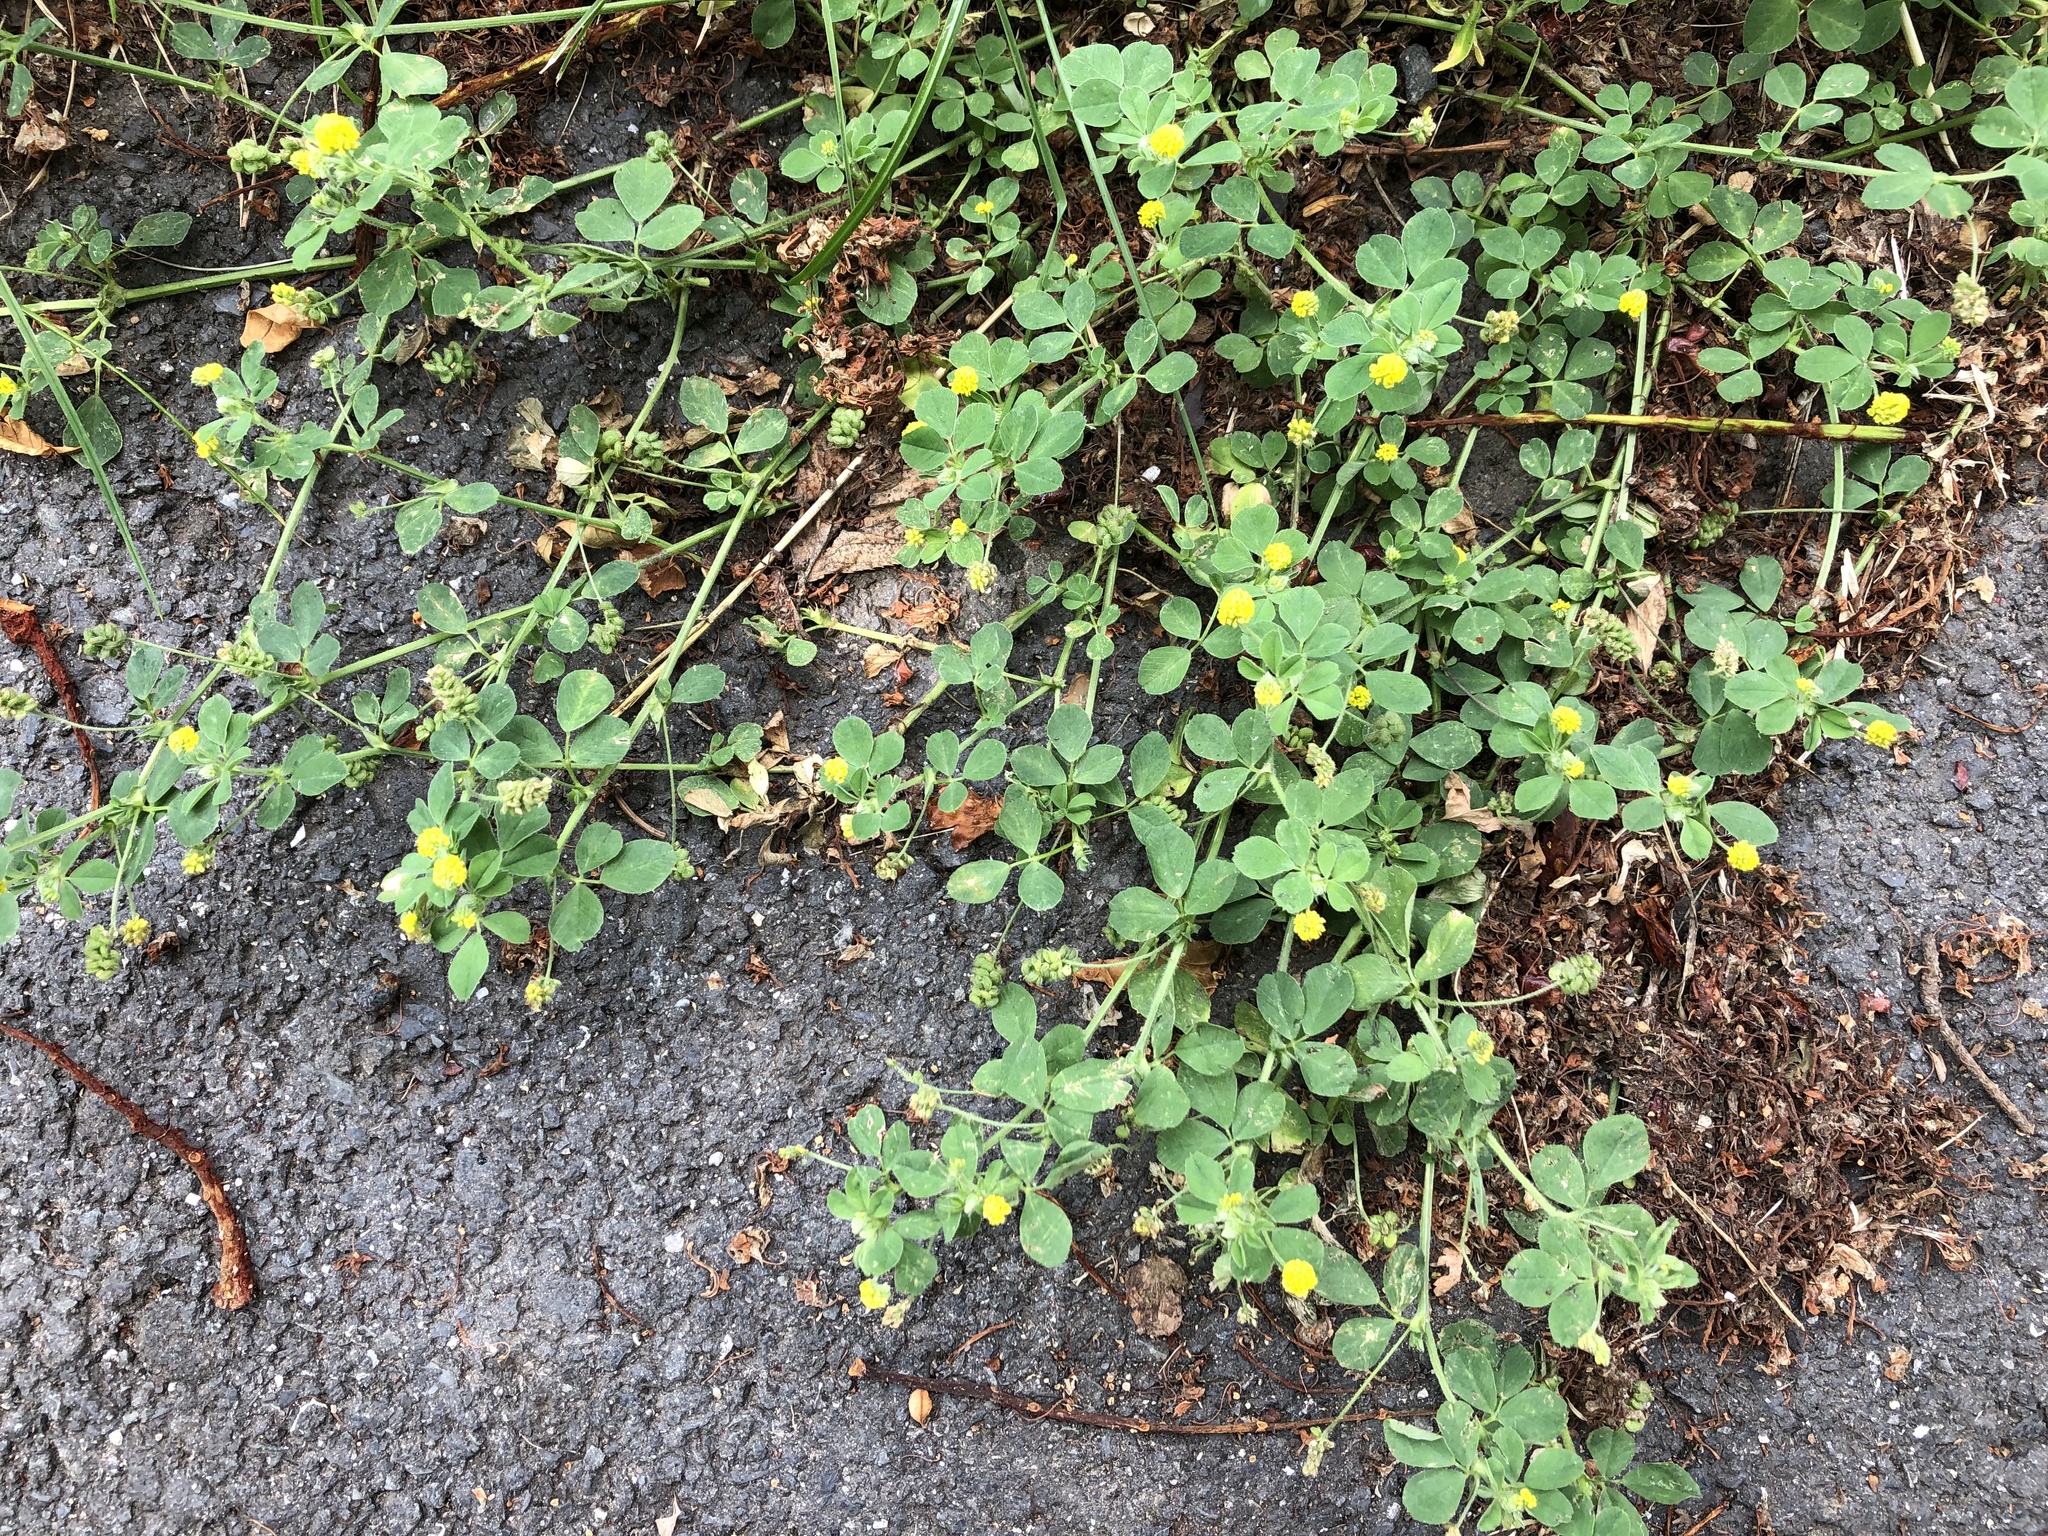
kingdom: Plantae
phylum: Tracheophyta
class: Magnoliopsida
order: Fabales
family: Fabaceae
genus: Medicago
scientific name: Medicago lupulina
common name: Black medick
